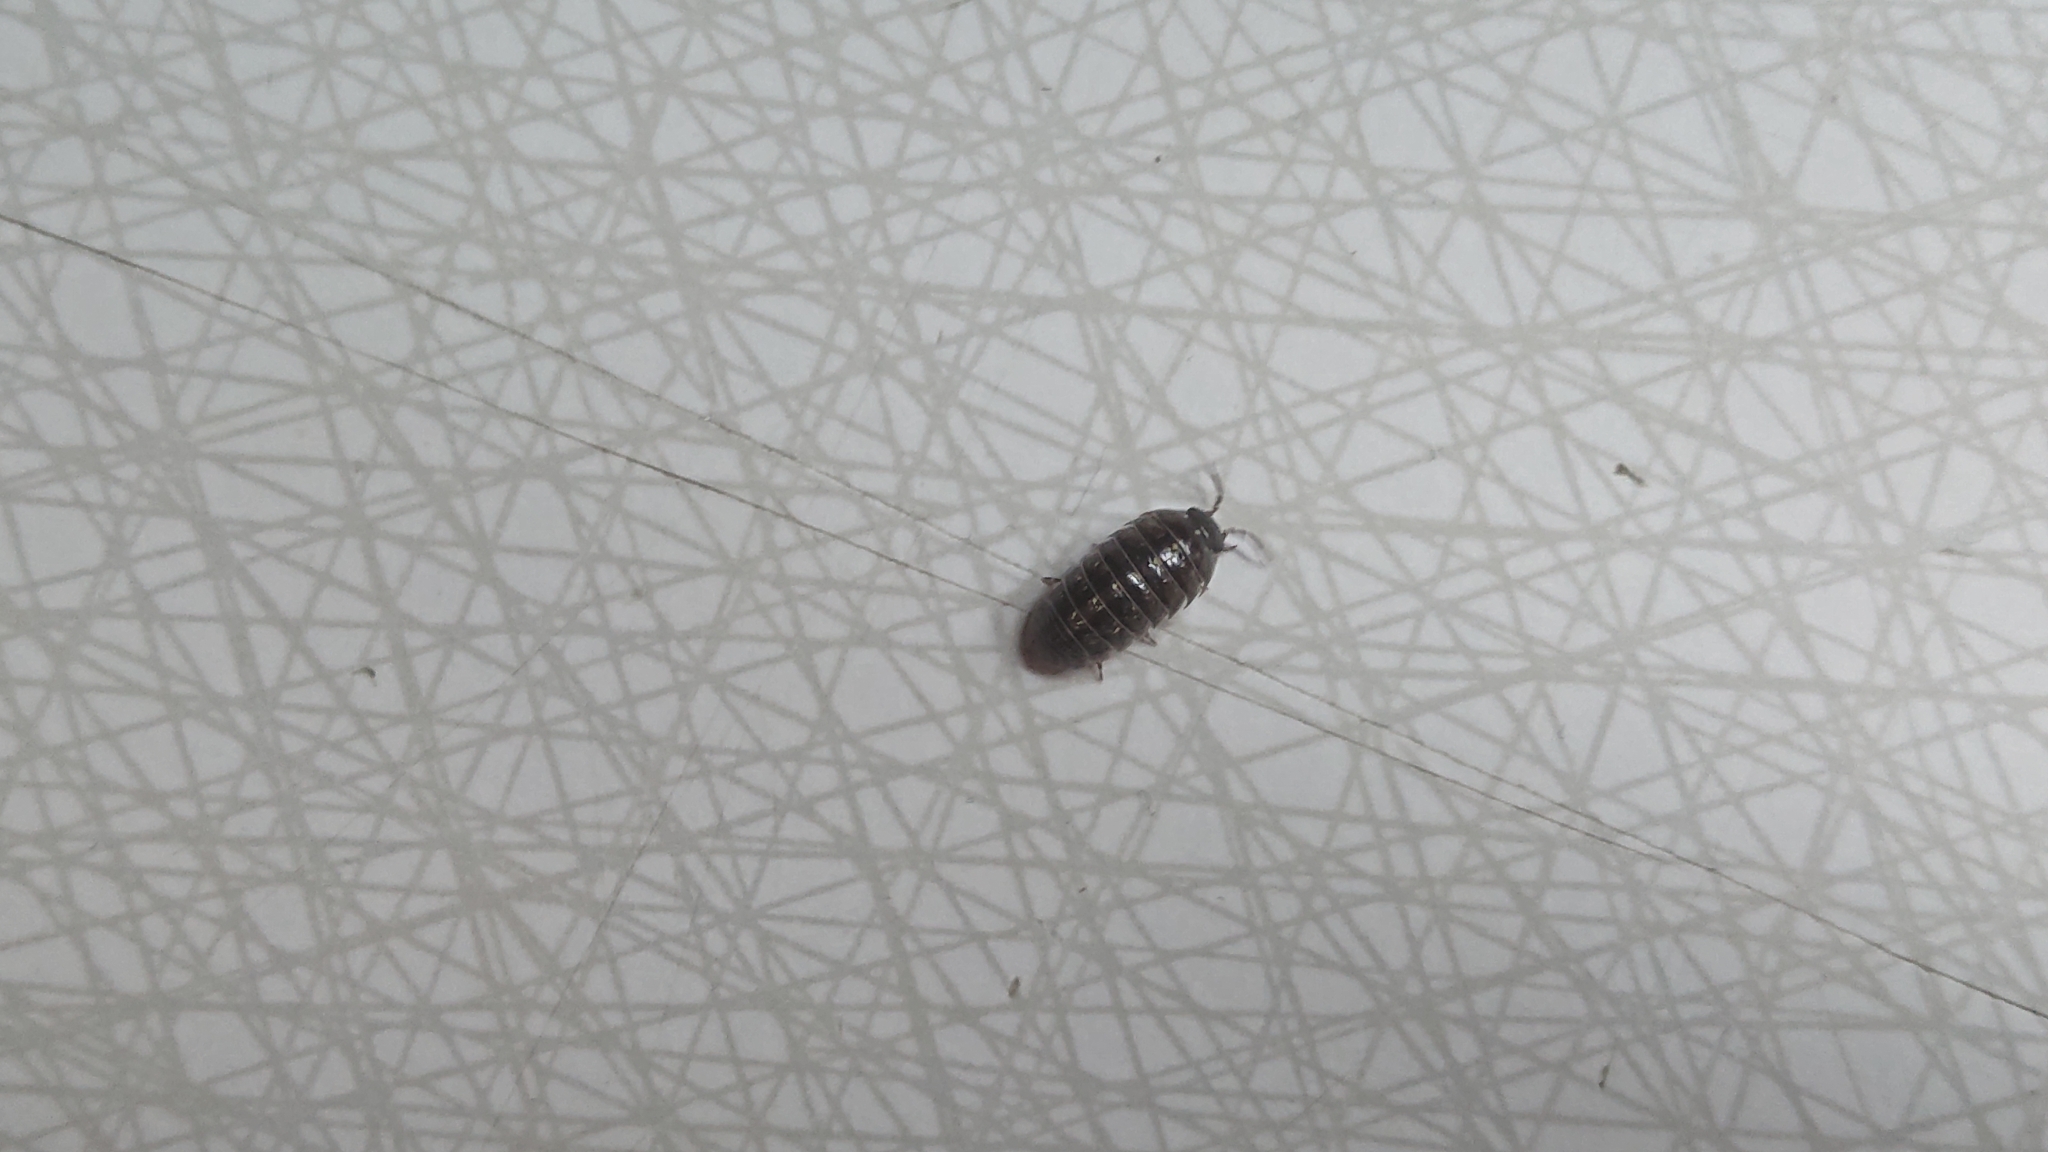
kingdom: Animalia
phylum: Arthropoda
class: Malacostraca
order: Isopoda
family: Armadillidiidae
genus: Armadillidium
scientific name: Armadillidium vulgare
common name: Common pill woodlouse
